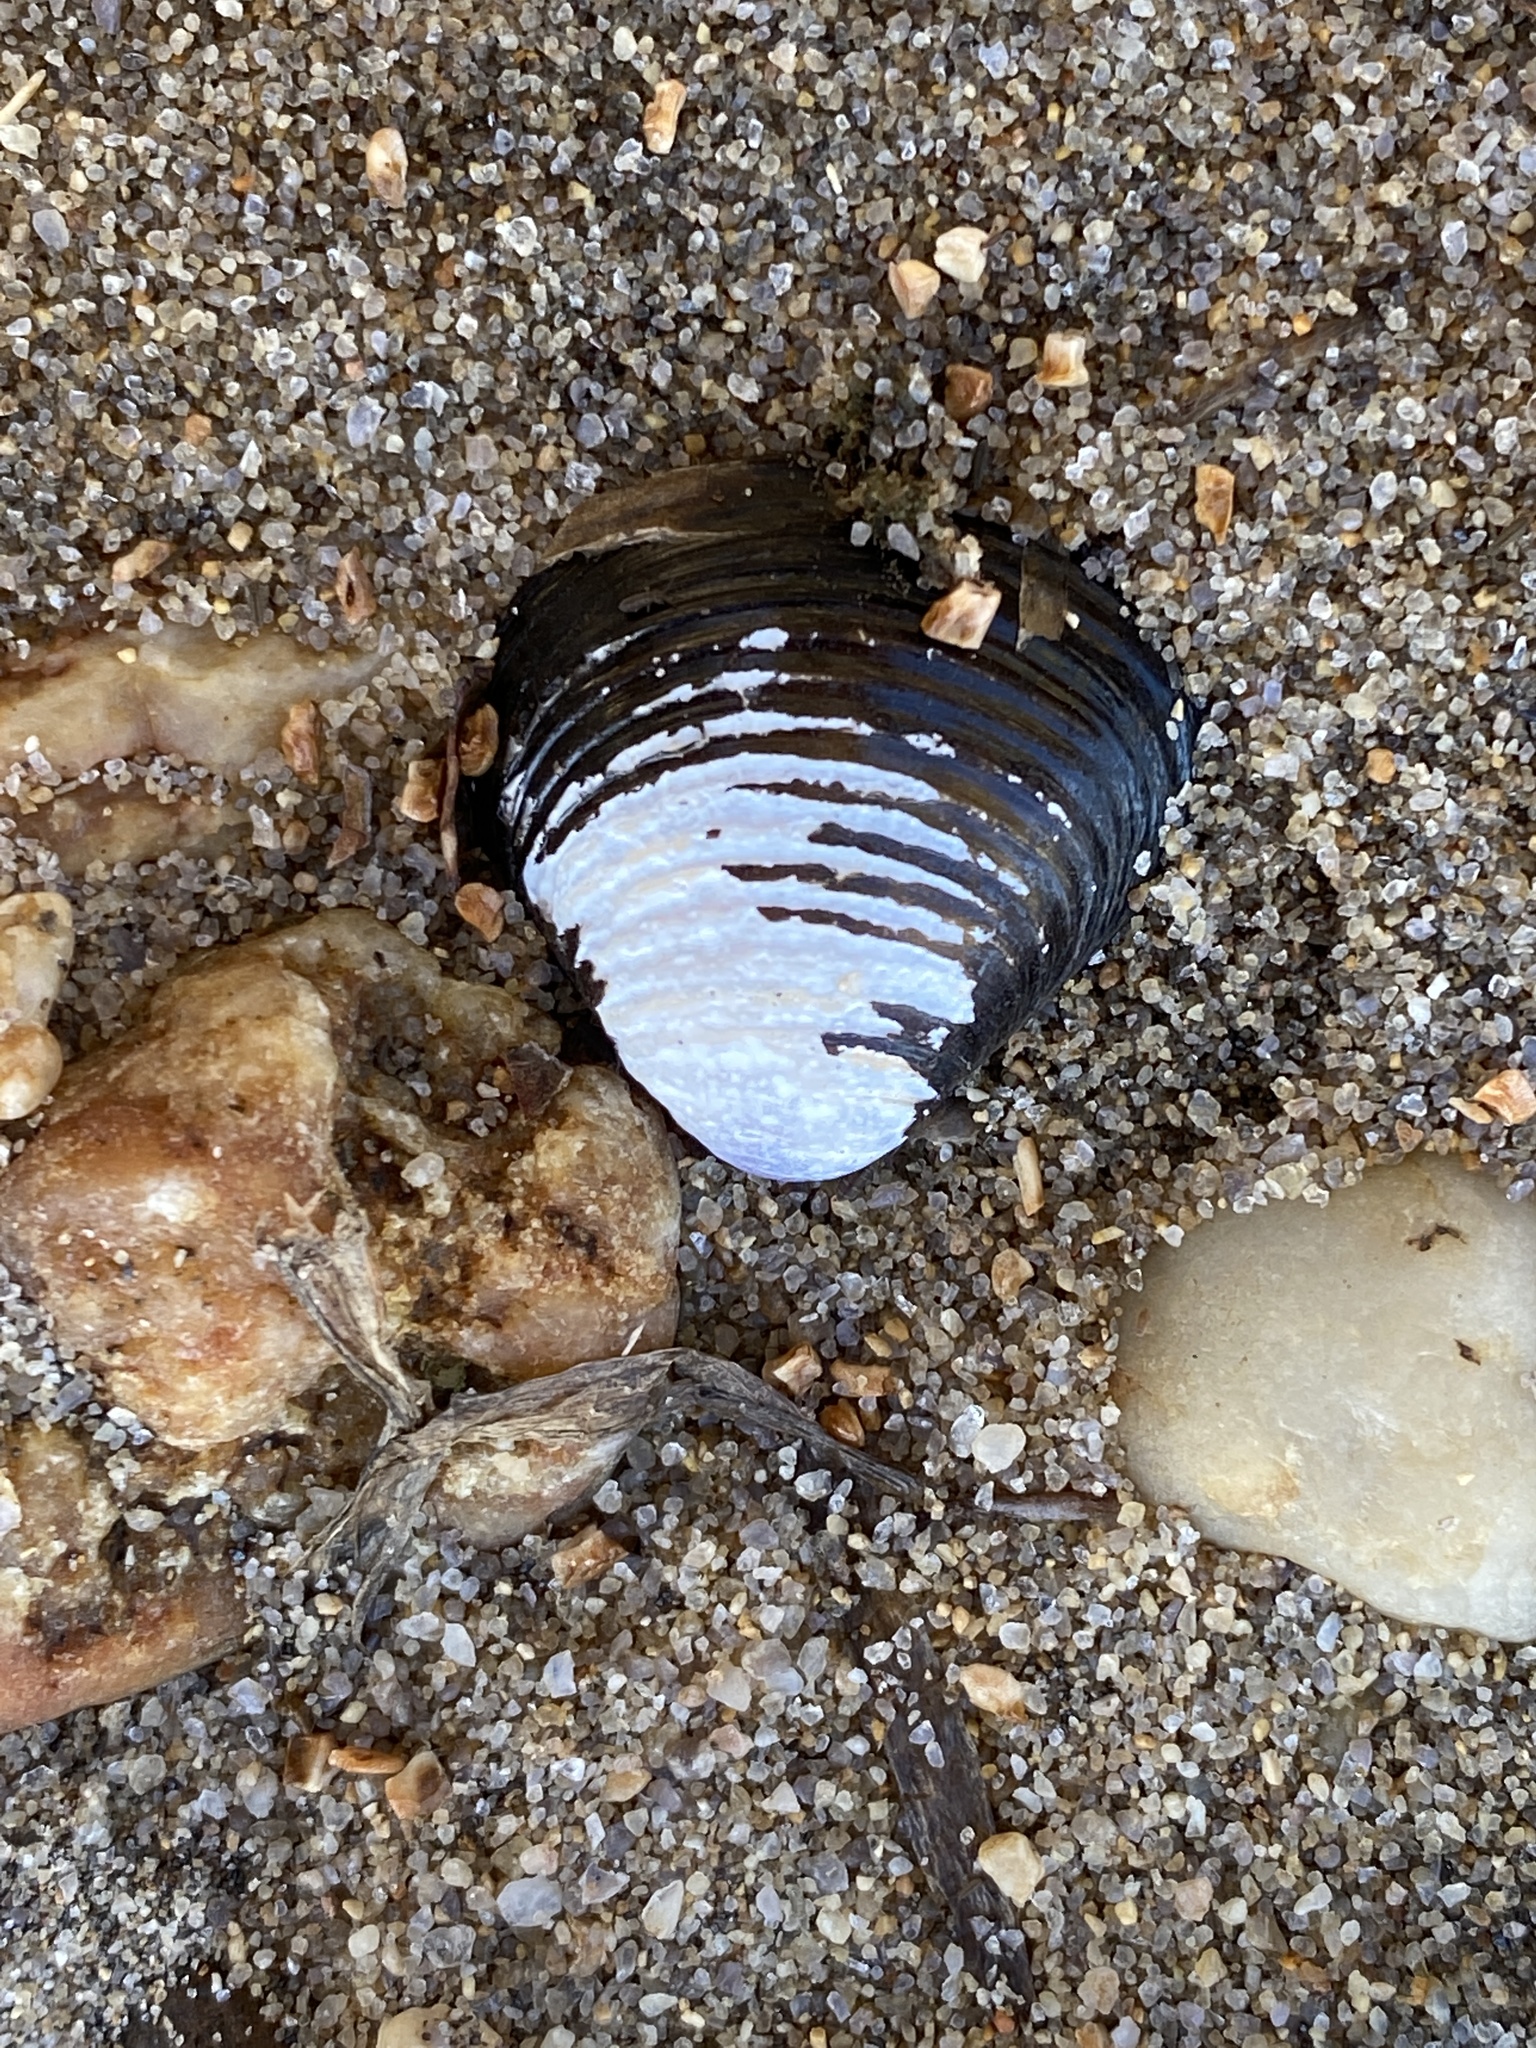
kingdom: Animalia
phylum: Mollusca
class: Bivalvia
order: Venerida
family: Cyrenidae
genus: Corbicula
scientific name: Corbicula fluminea
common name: Asian clam
